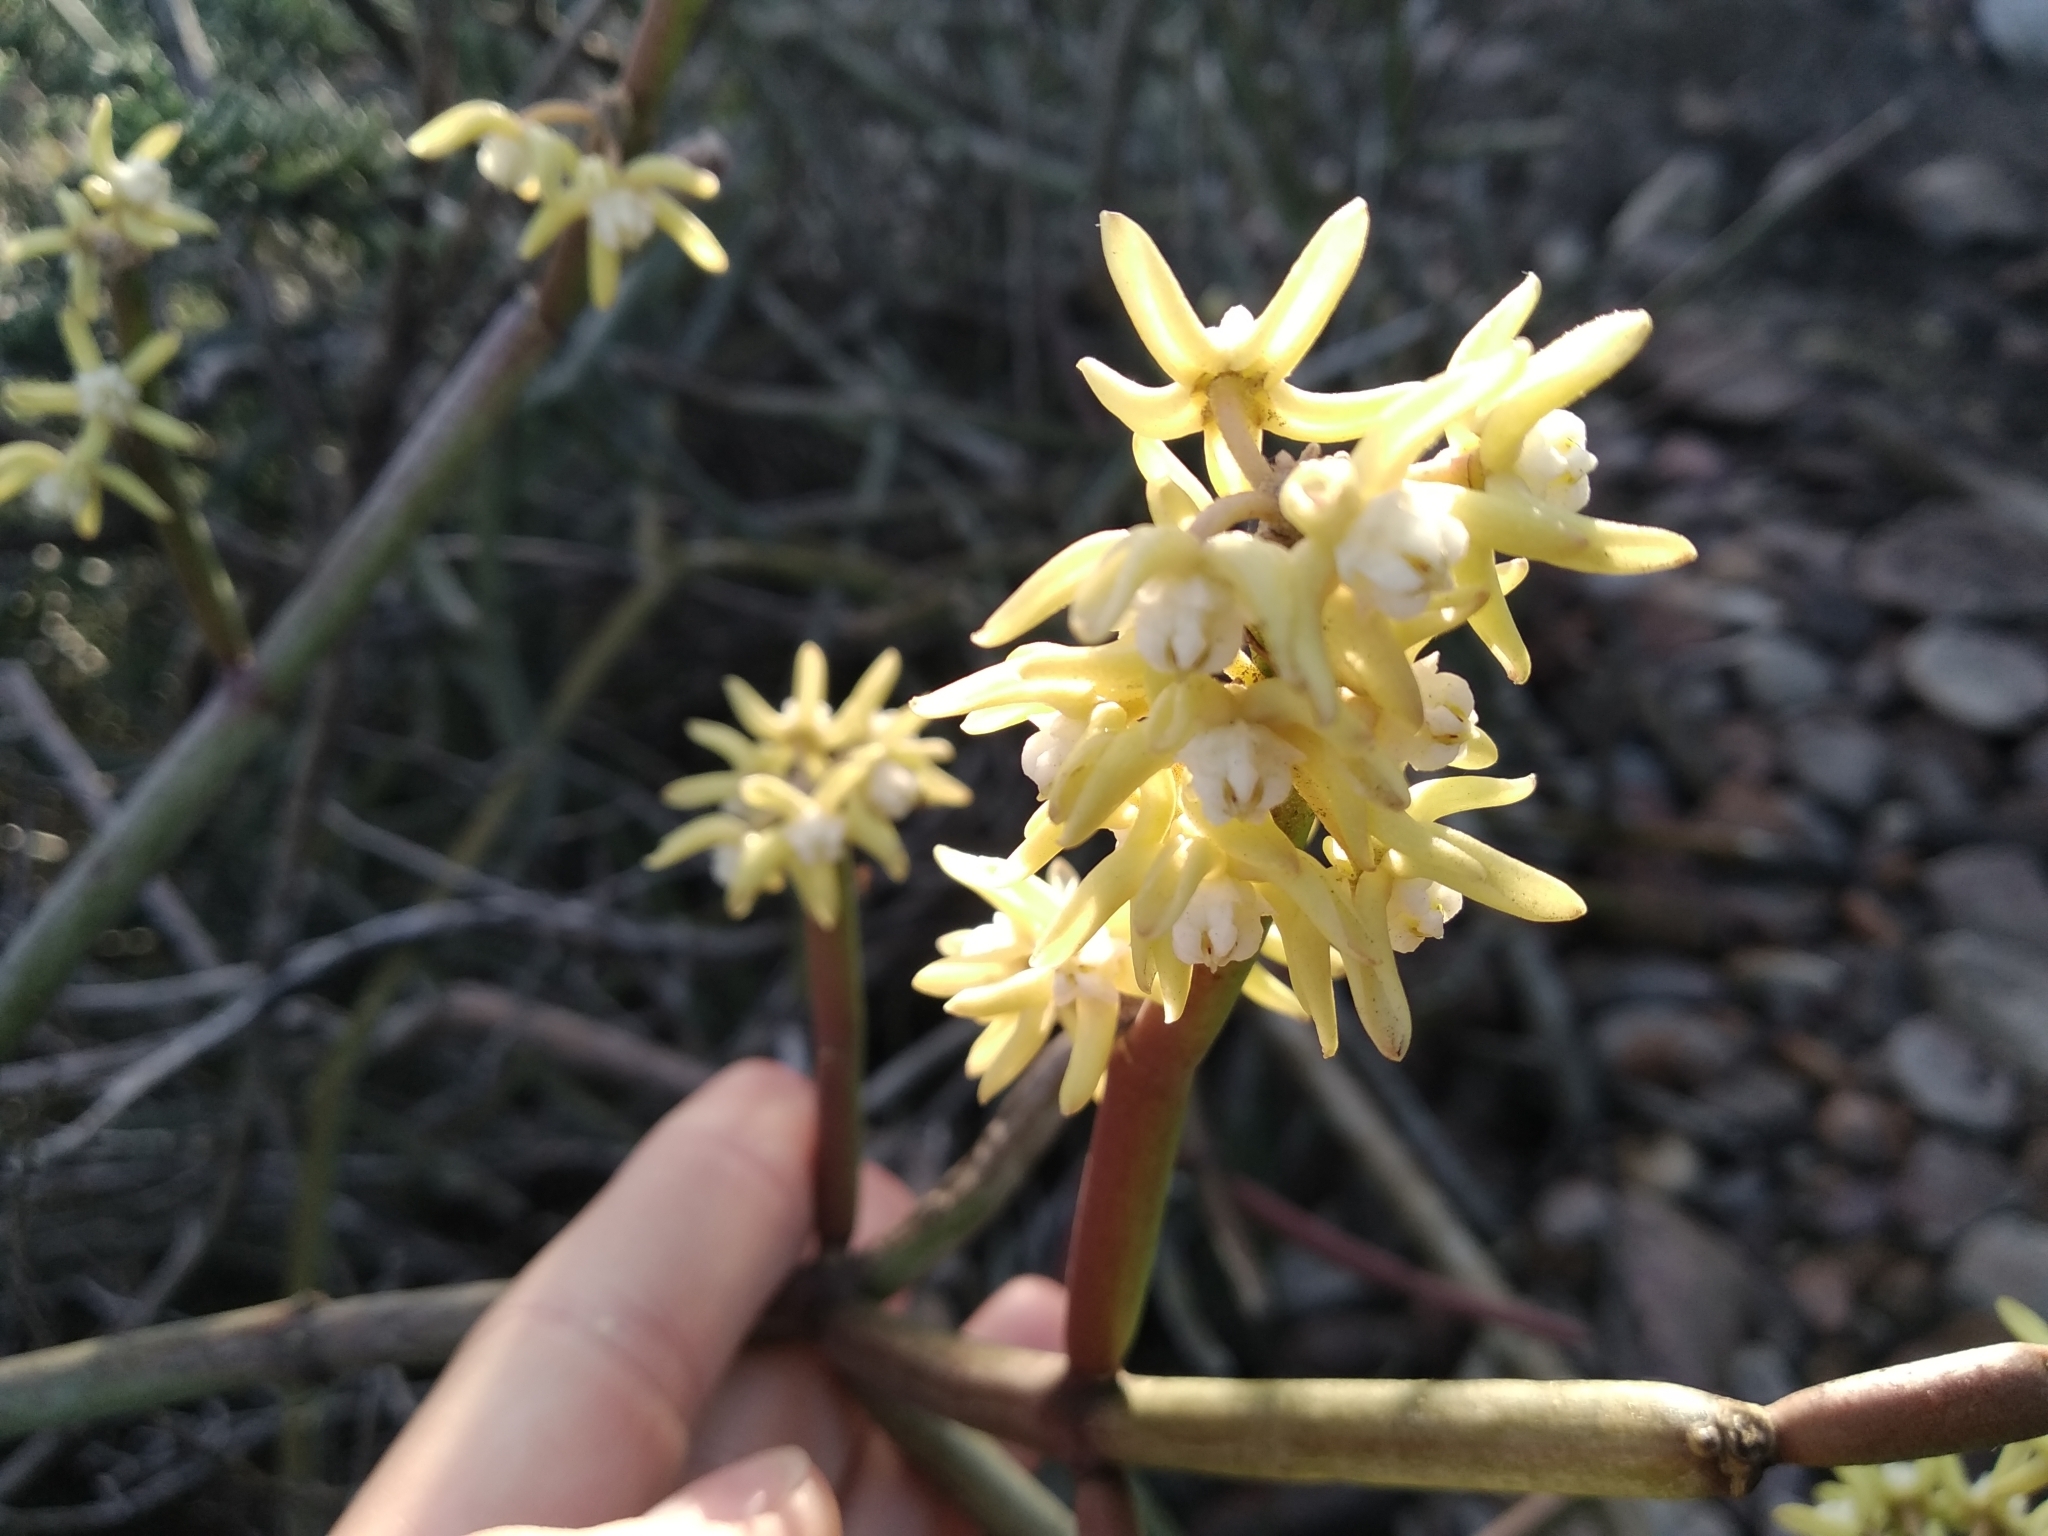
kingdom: Plantae
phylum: Tracheophyta
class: Magnoliopsida
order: Gentianales
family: Apocynaceae
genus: Cynanchum
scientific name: Cynanchum viminale
